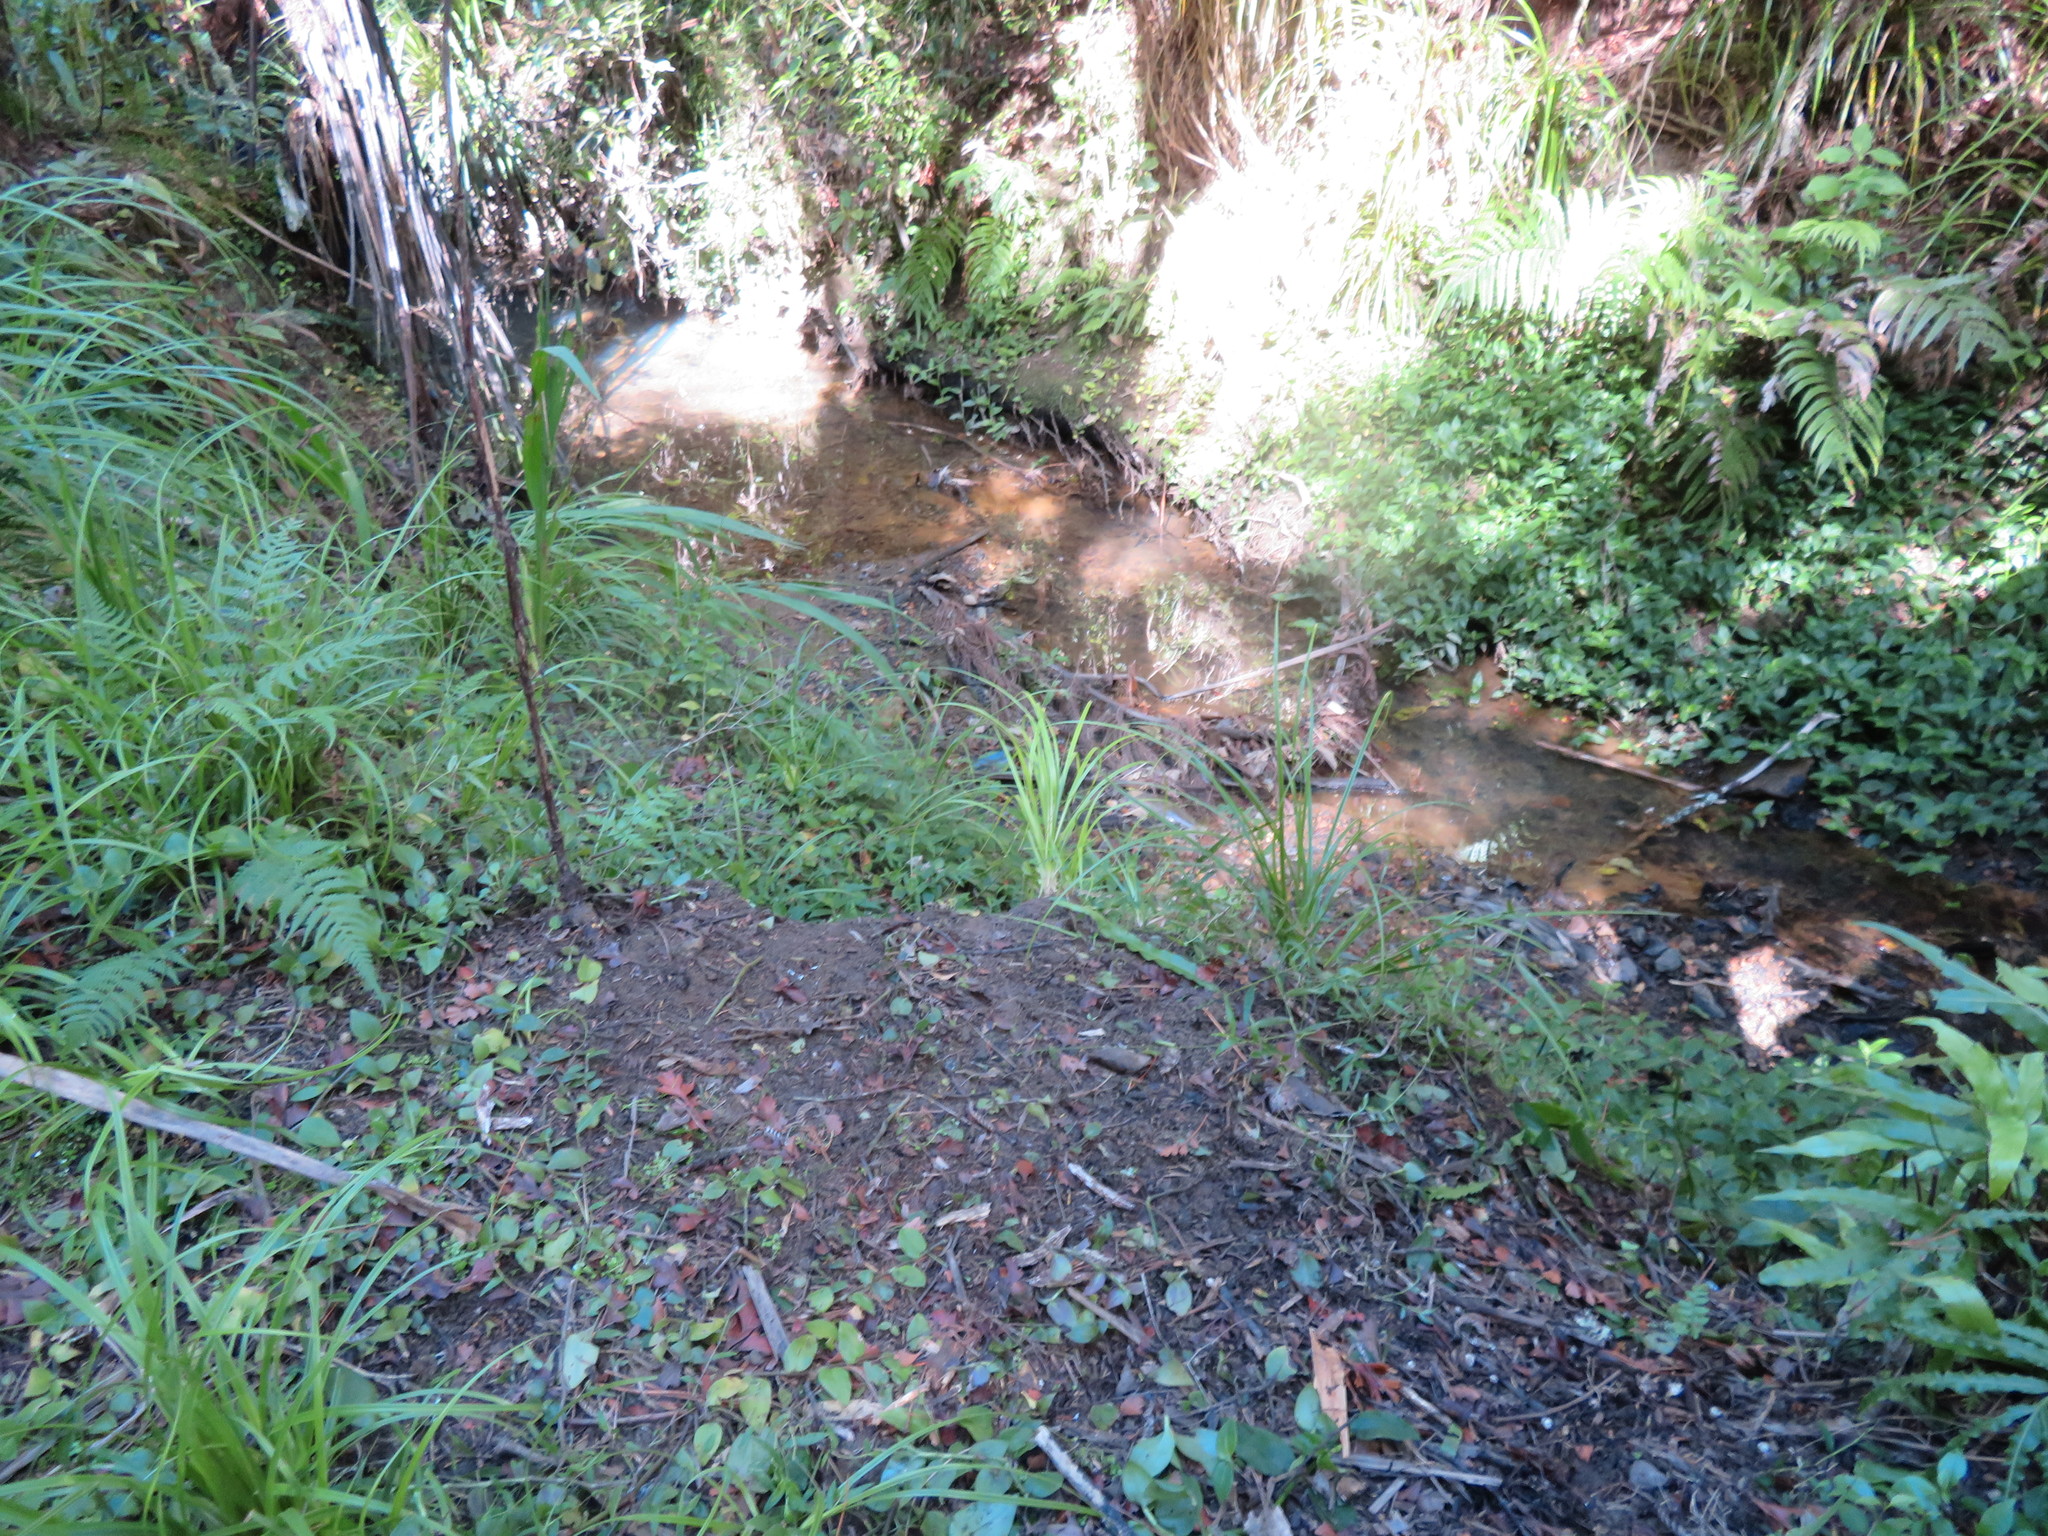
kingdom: Plantae
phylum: Tracheophyta
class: Liliopsida
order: Commelinales
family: Commelinaceae
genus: Tradescantia
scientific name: Tradescantia fluminensis
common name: Wandering-jew
